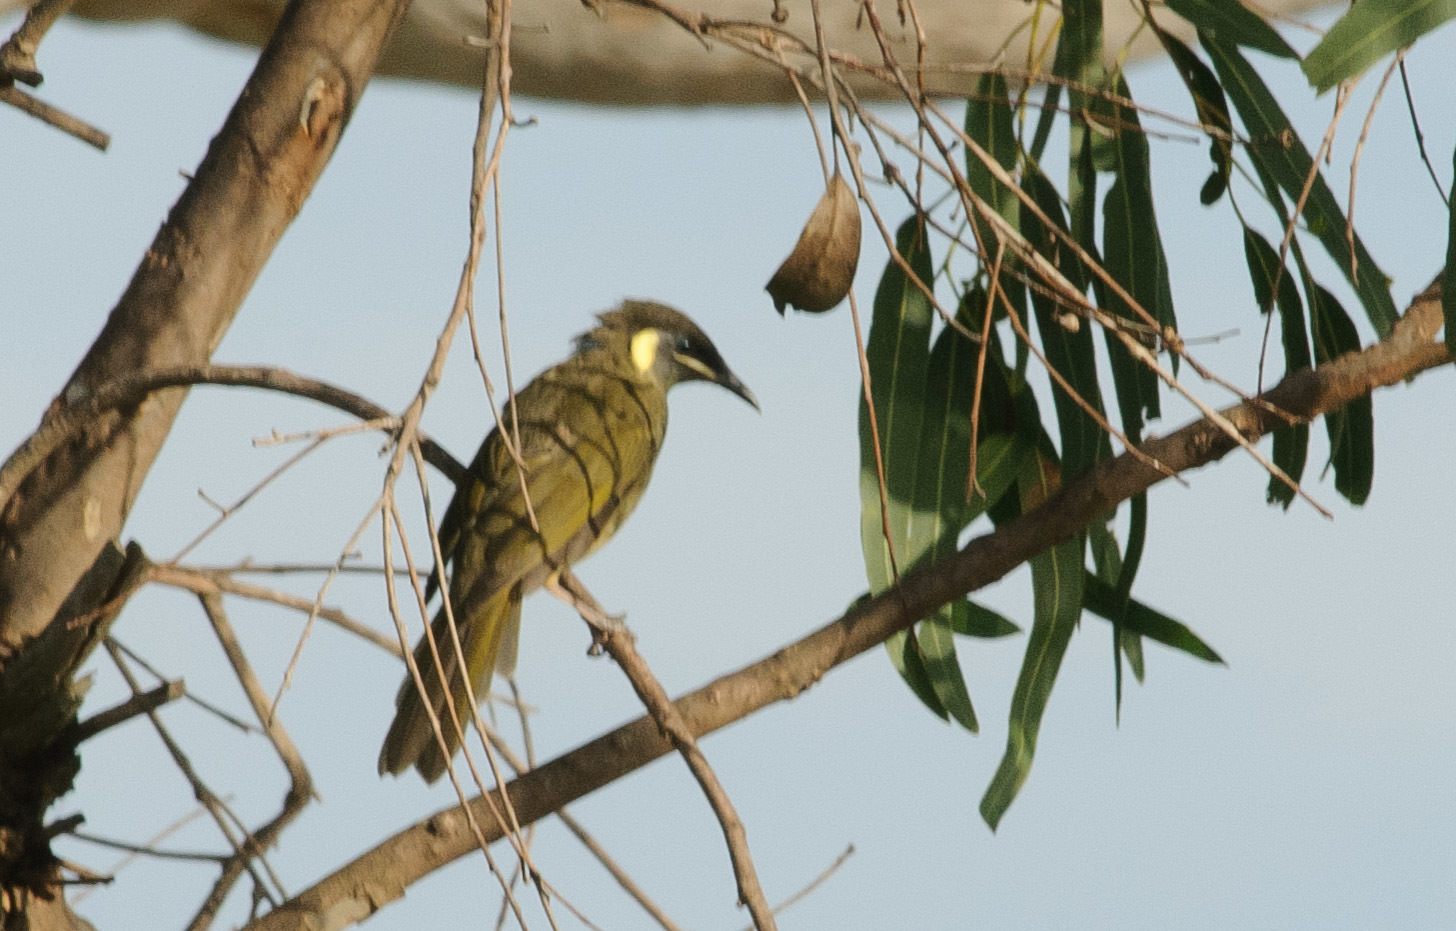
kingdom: Animalia
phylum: Chordata
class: Aves
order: Passeriformes
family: Meliphagidae
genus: Meliphaga
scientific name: Meliphaga lewinii
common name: Lewin's honeyeater
